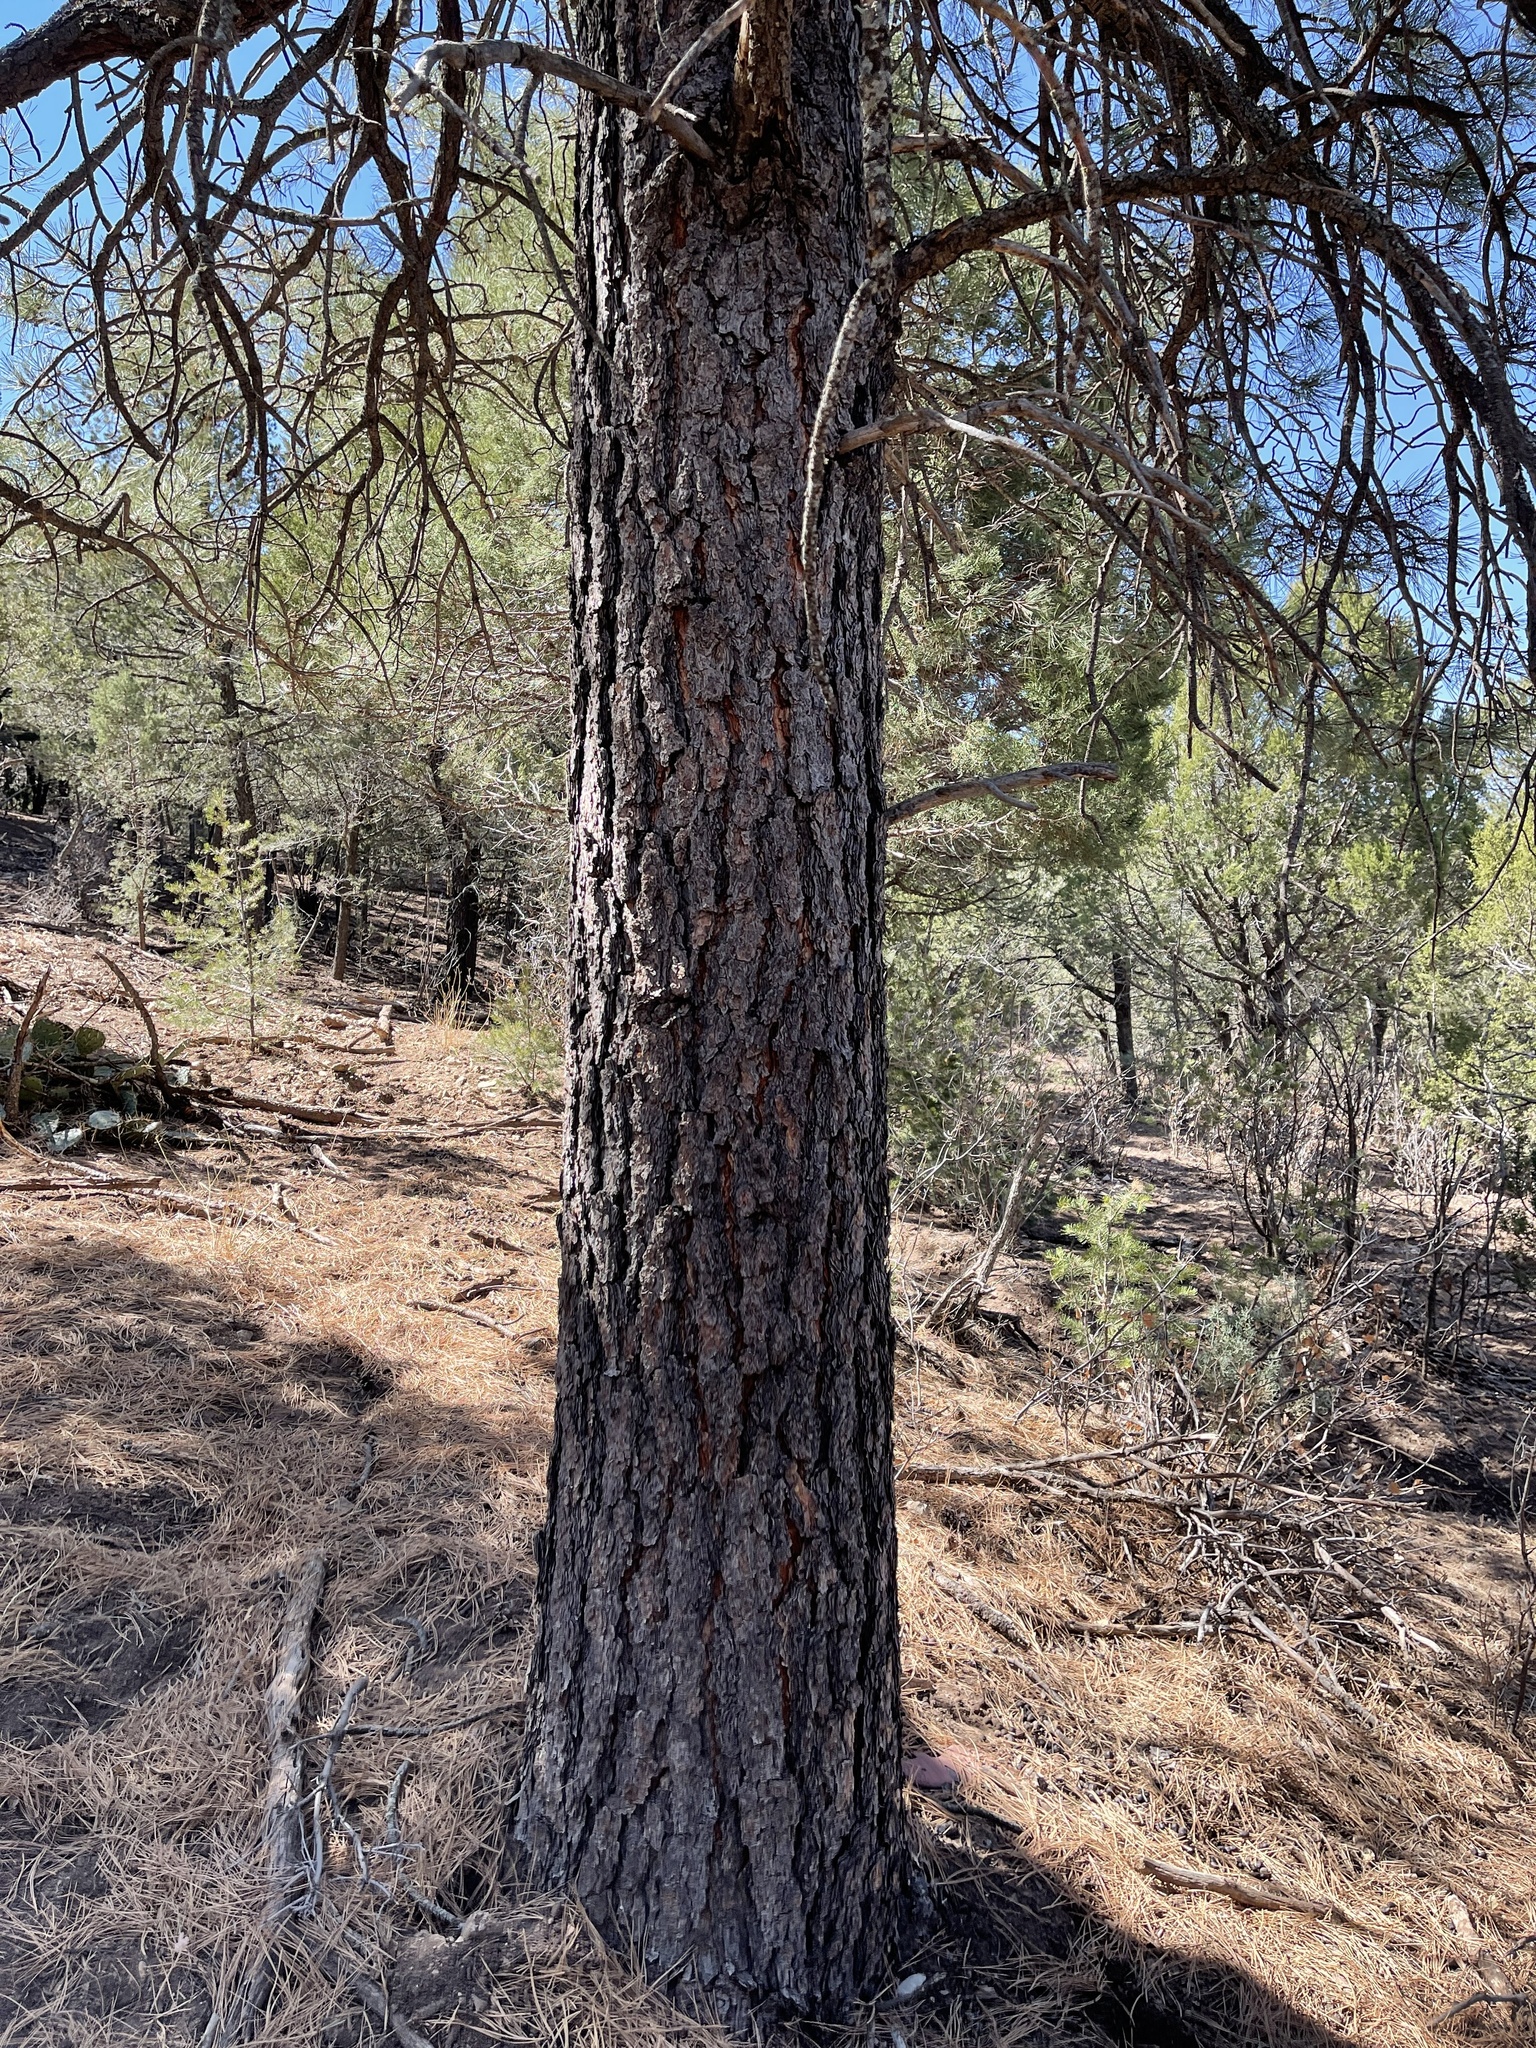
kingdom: Plantae
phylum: Tracheophyta
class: Pinopsida
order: Pinales
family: Pinaceae
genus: Pinus
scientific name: Pinus ponderosa
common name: Western yellow-pine
